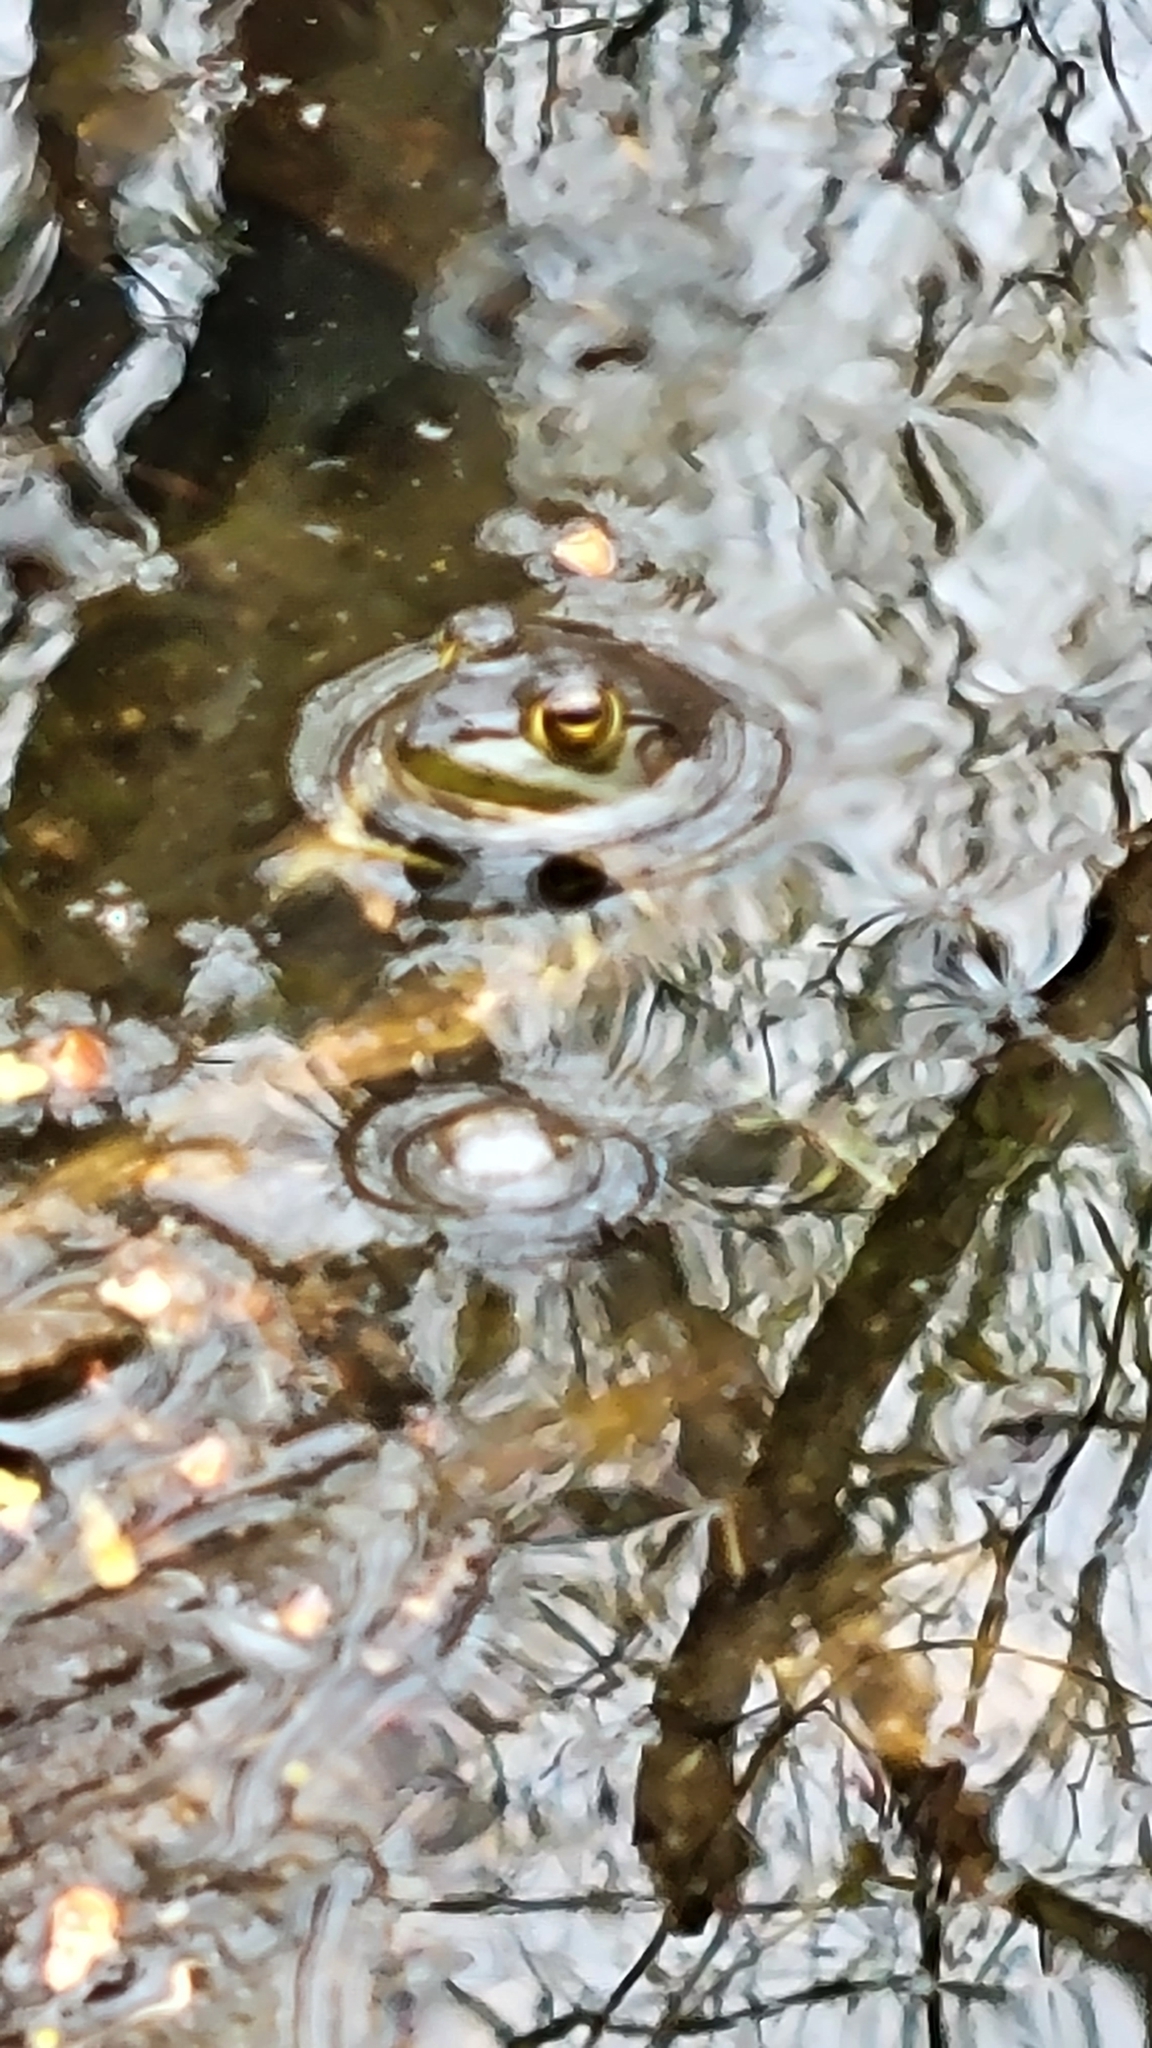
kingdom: Animalia
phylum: Chordata
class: Amphibia
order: Anura
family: Ranidae
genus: Lithobates
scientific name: Lithobates clamitans
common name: Green frog
